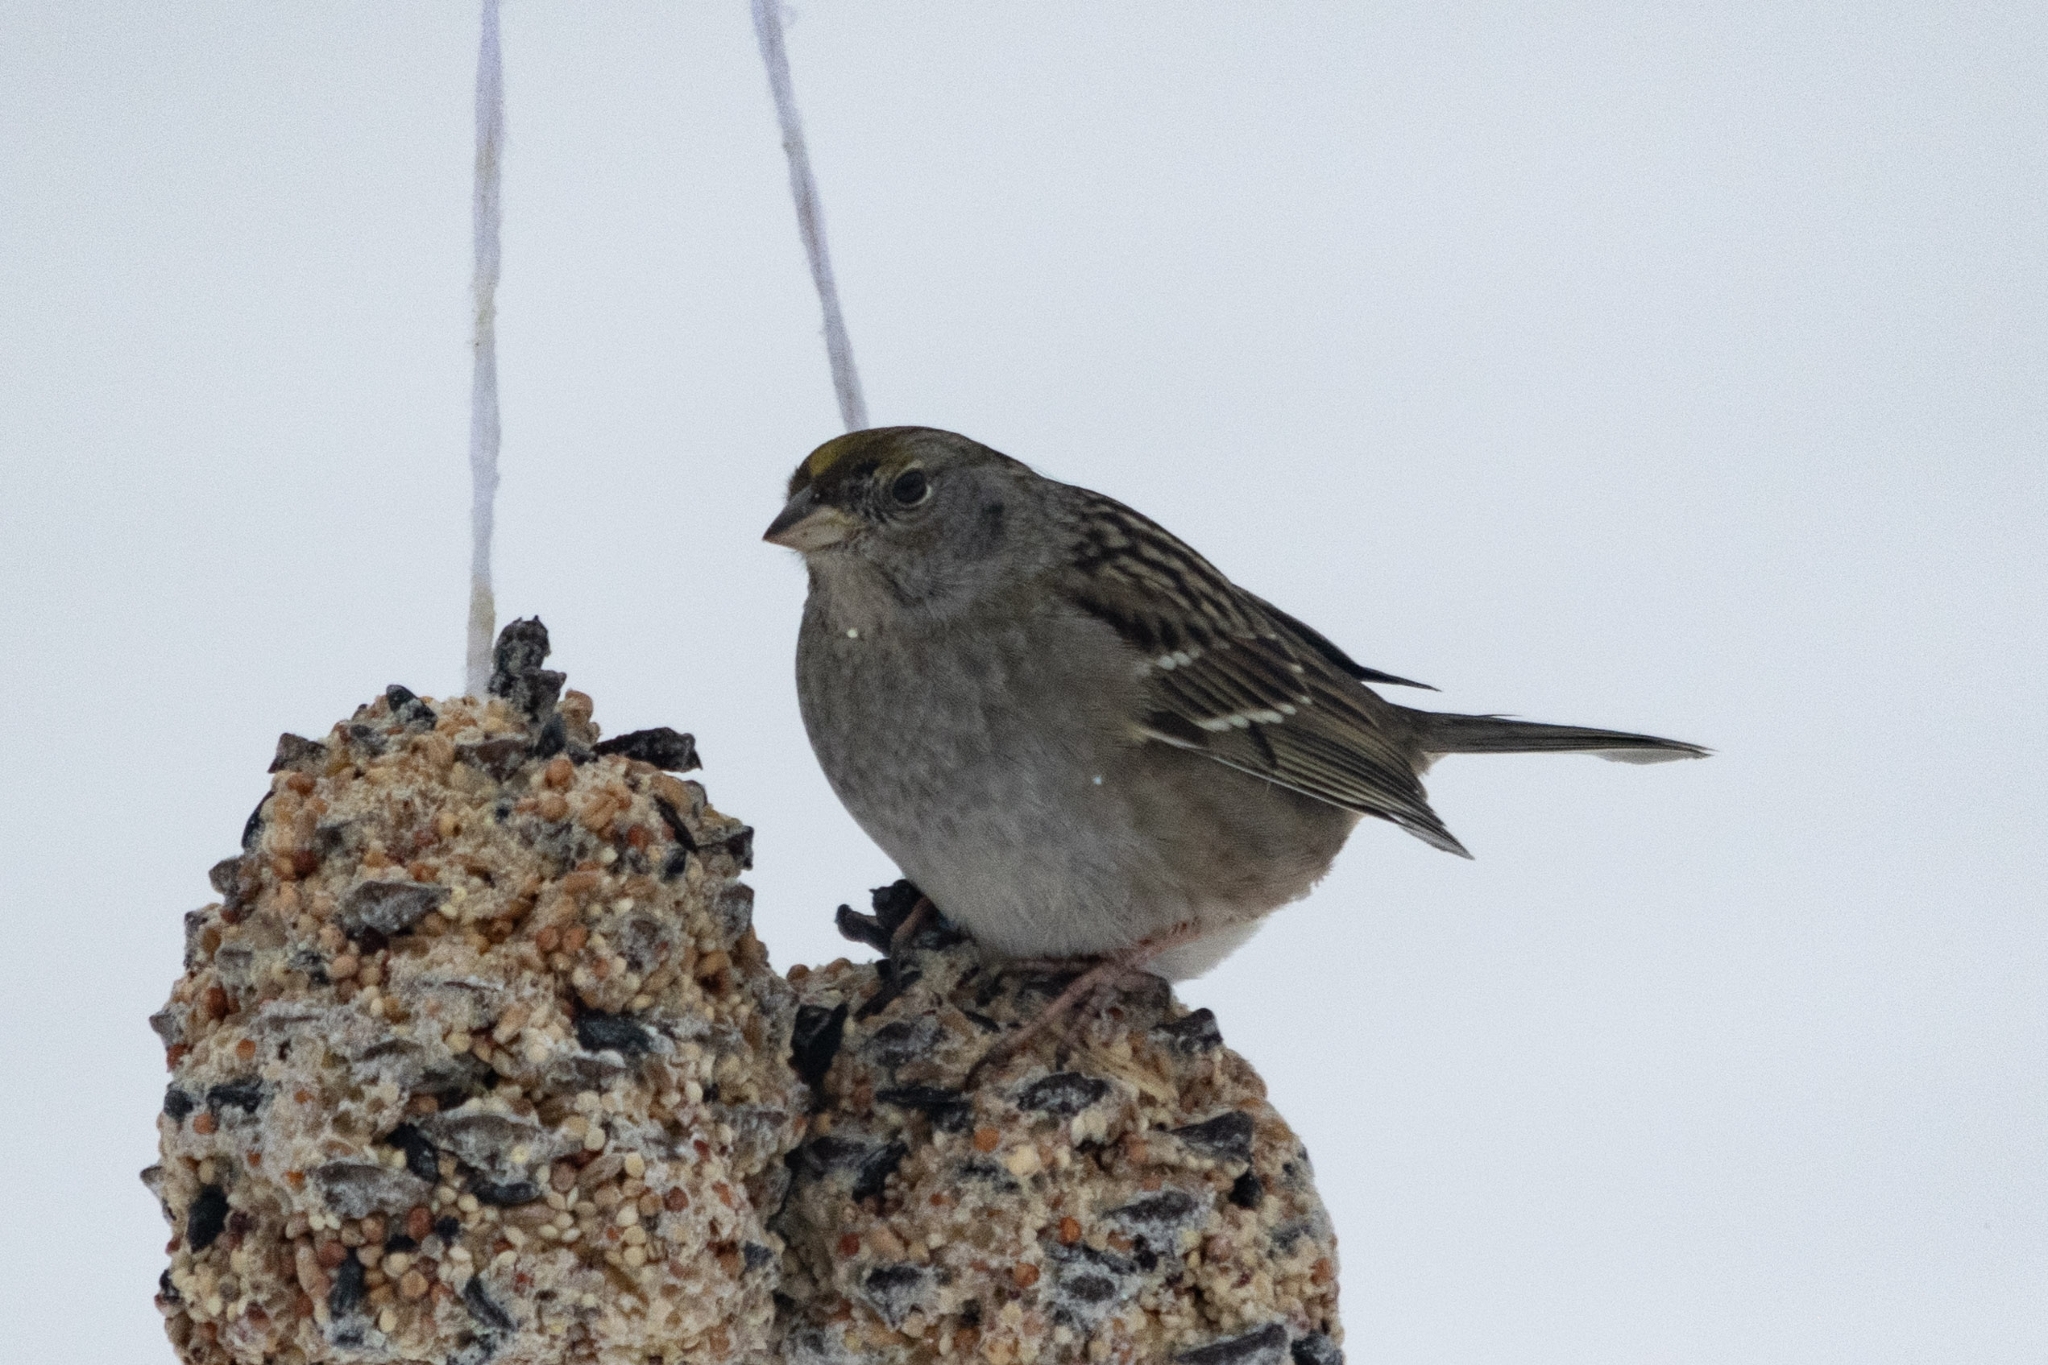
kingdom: Animalia
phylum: Chordata
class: Aves
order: Passeriformes
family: Passerellidae
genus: Zonotrichia
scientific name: Zonotrichia atricapilla
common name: Golden-crowned sparrow
